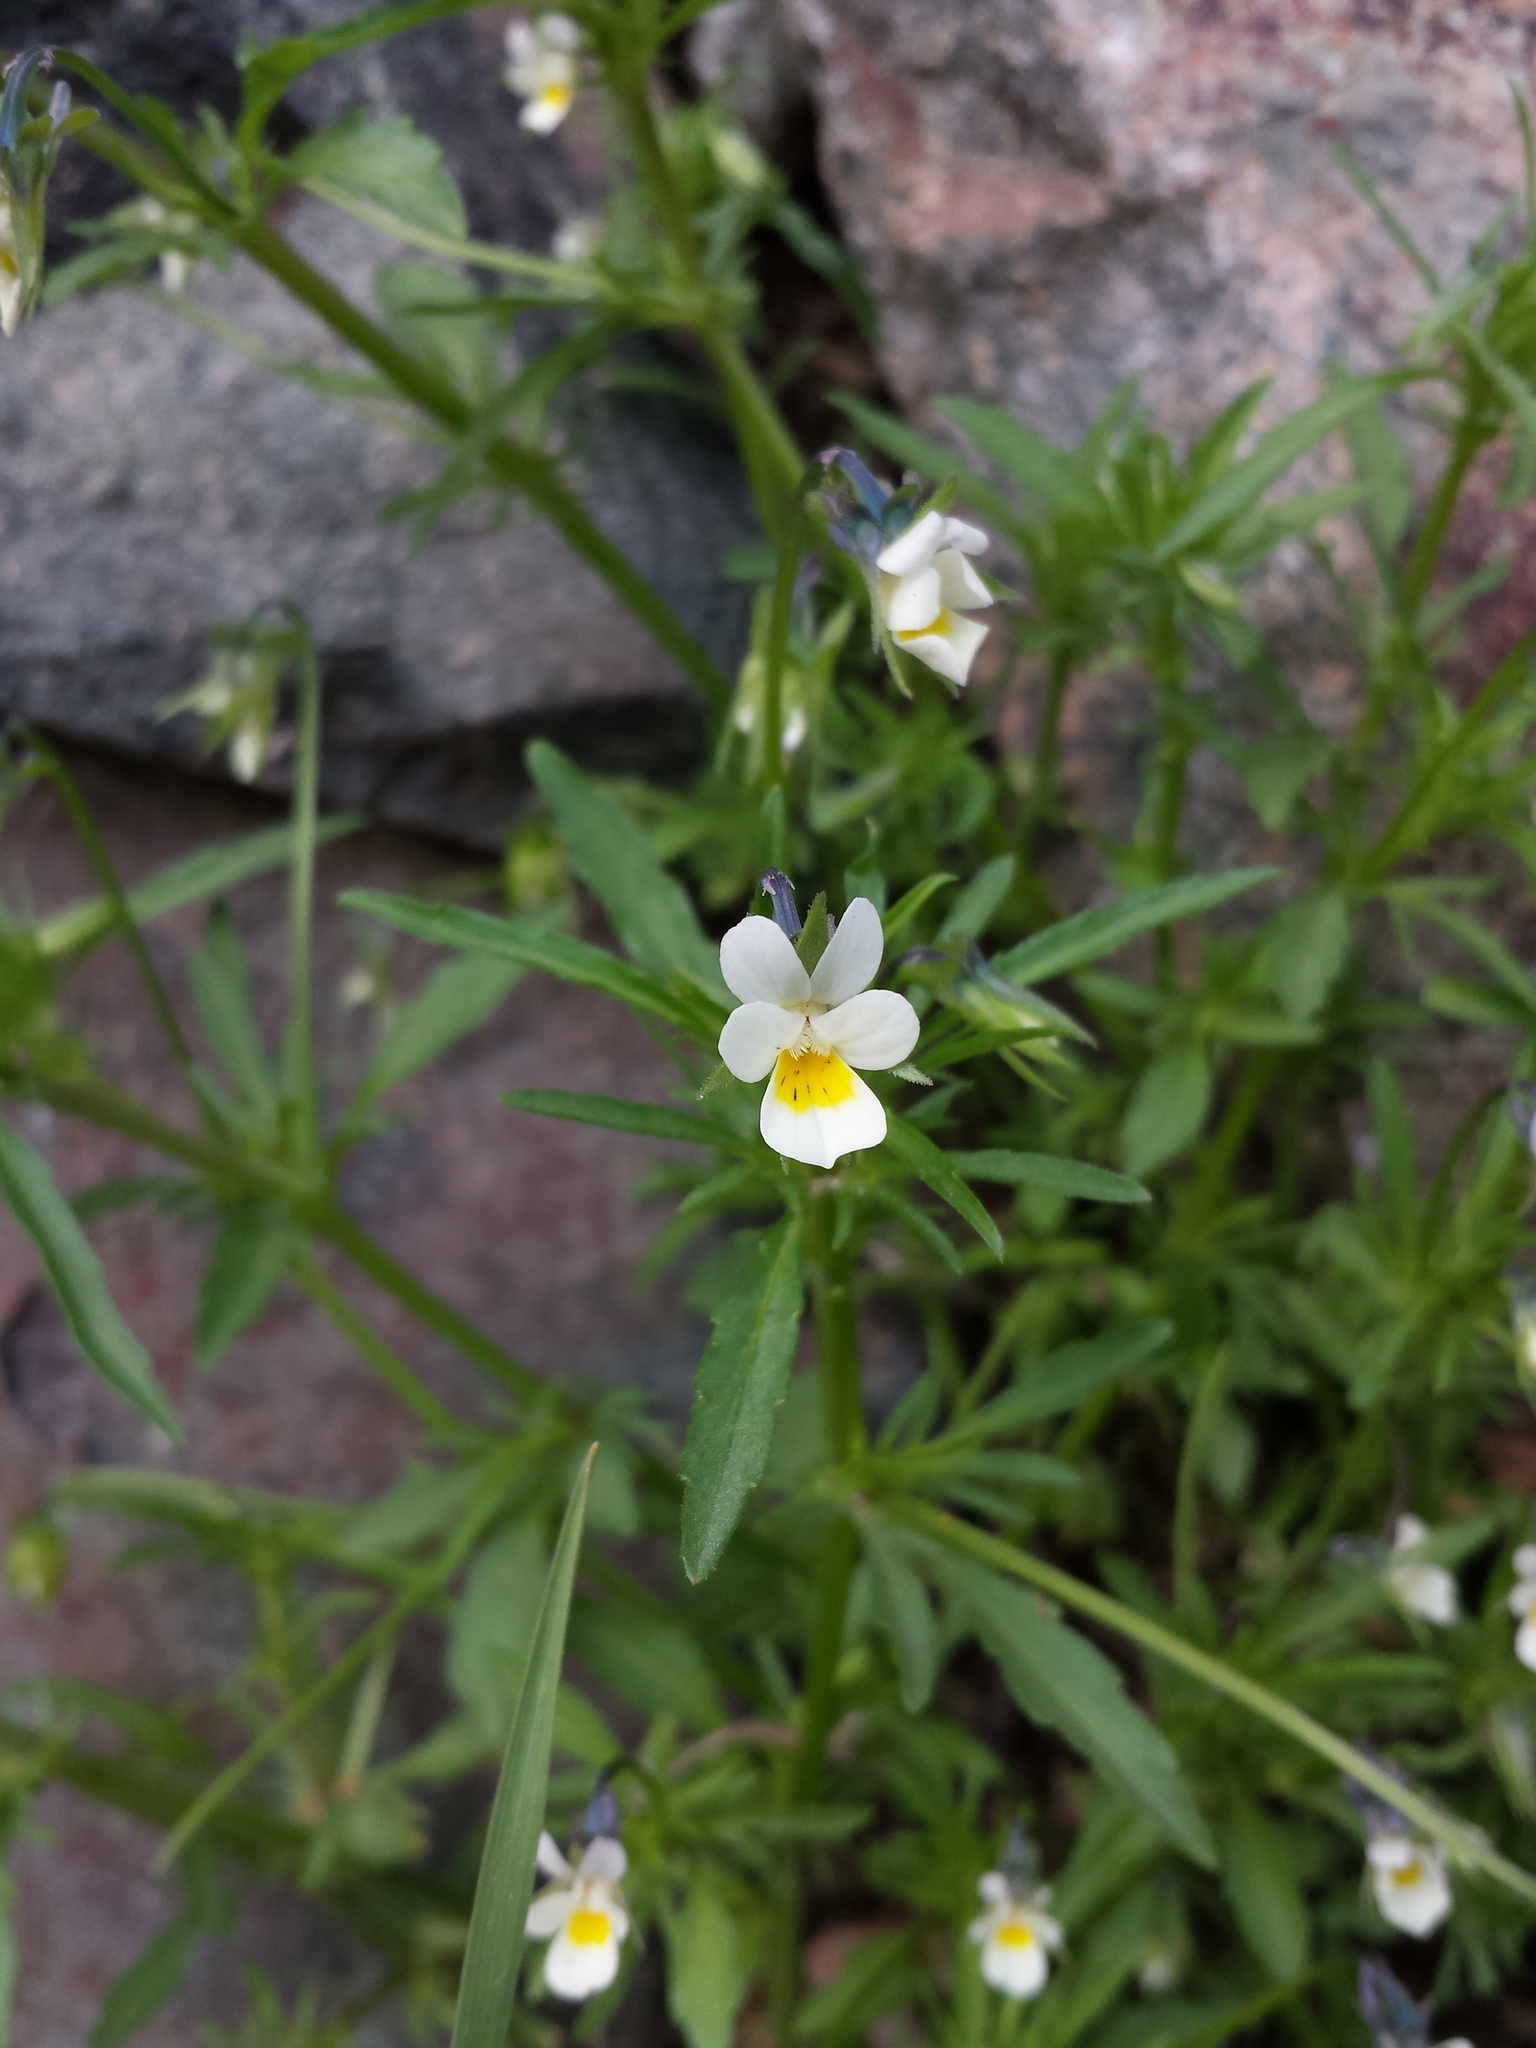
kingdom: Plantae
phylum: Tracheophyta
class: Magnoliopsida
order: Malpighiales
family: Violaceae
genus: Viola
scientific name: Viola arvensis
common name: Field pansy
